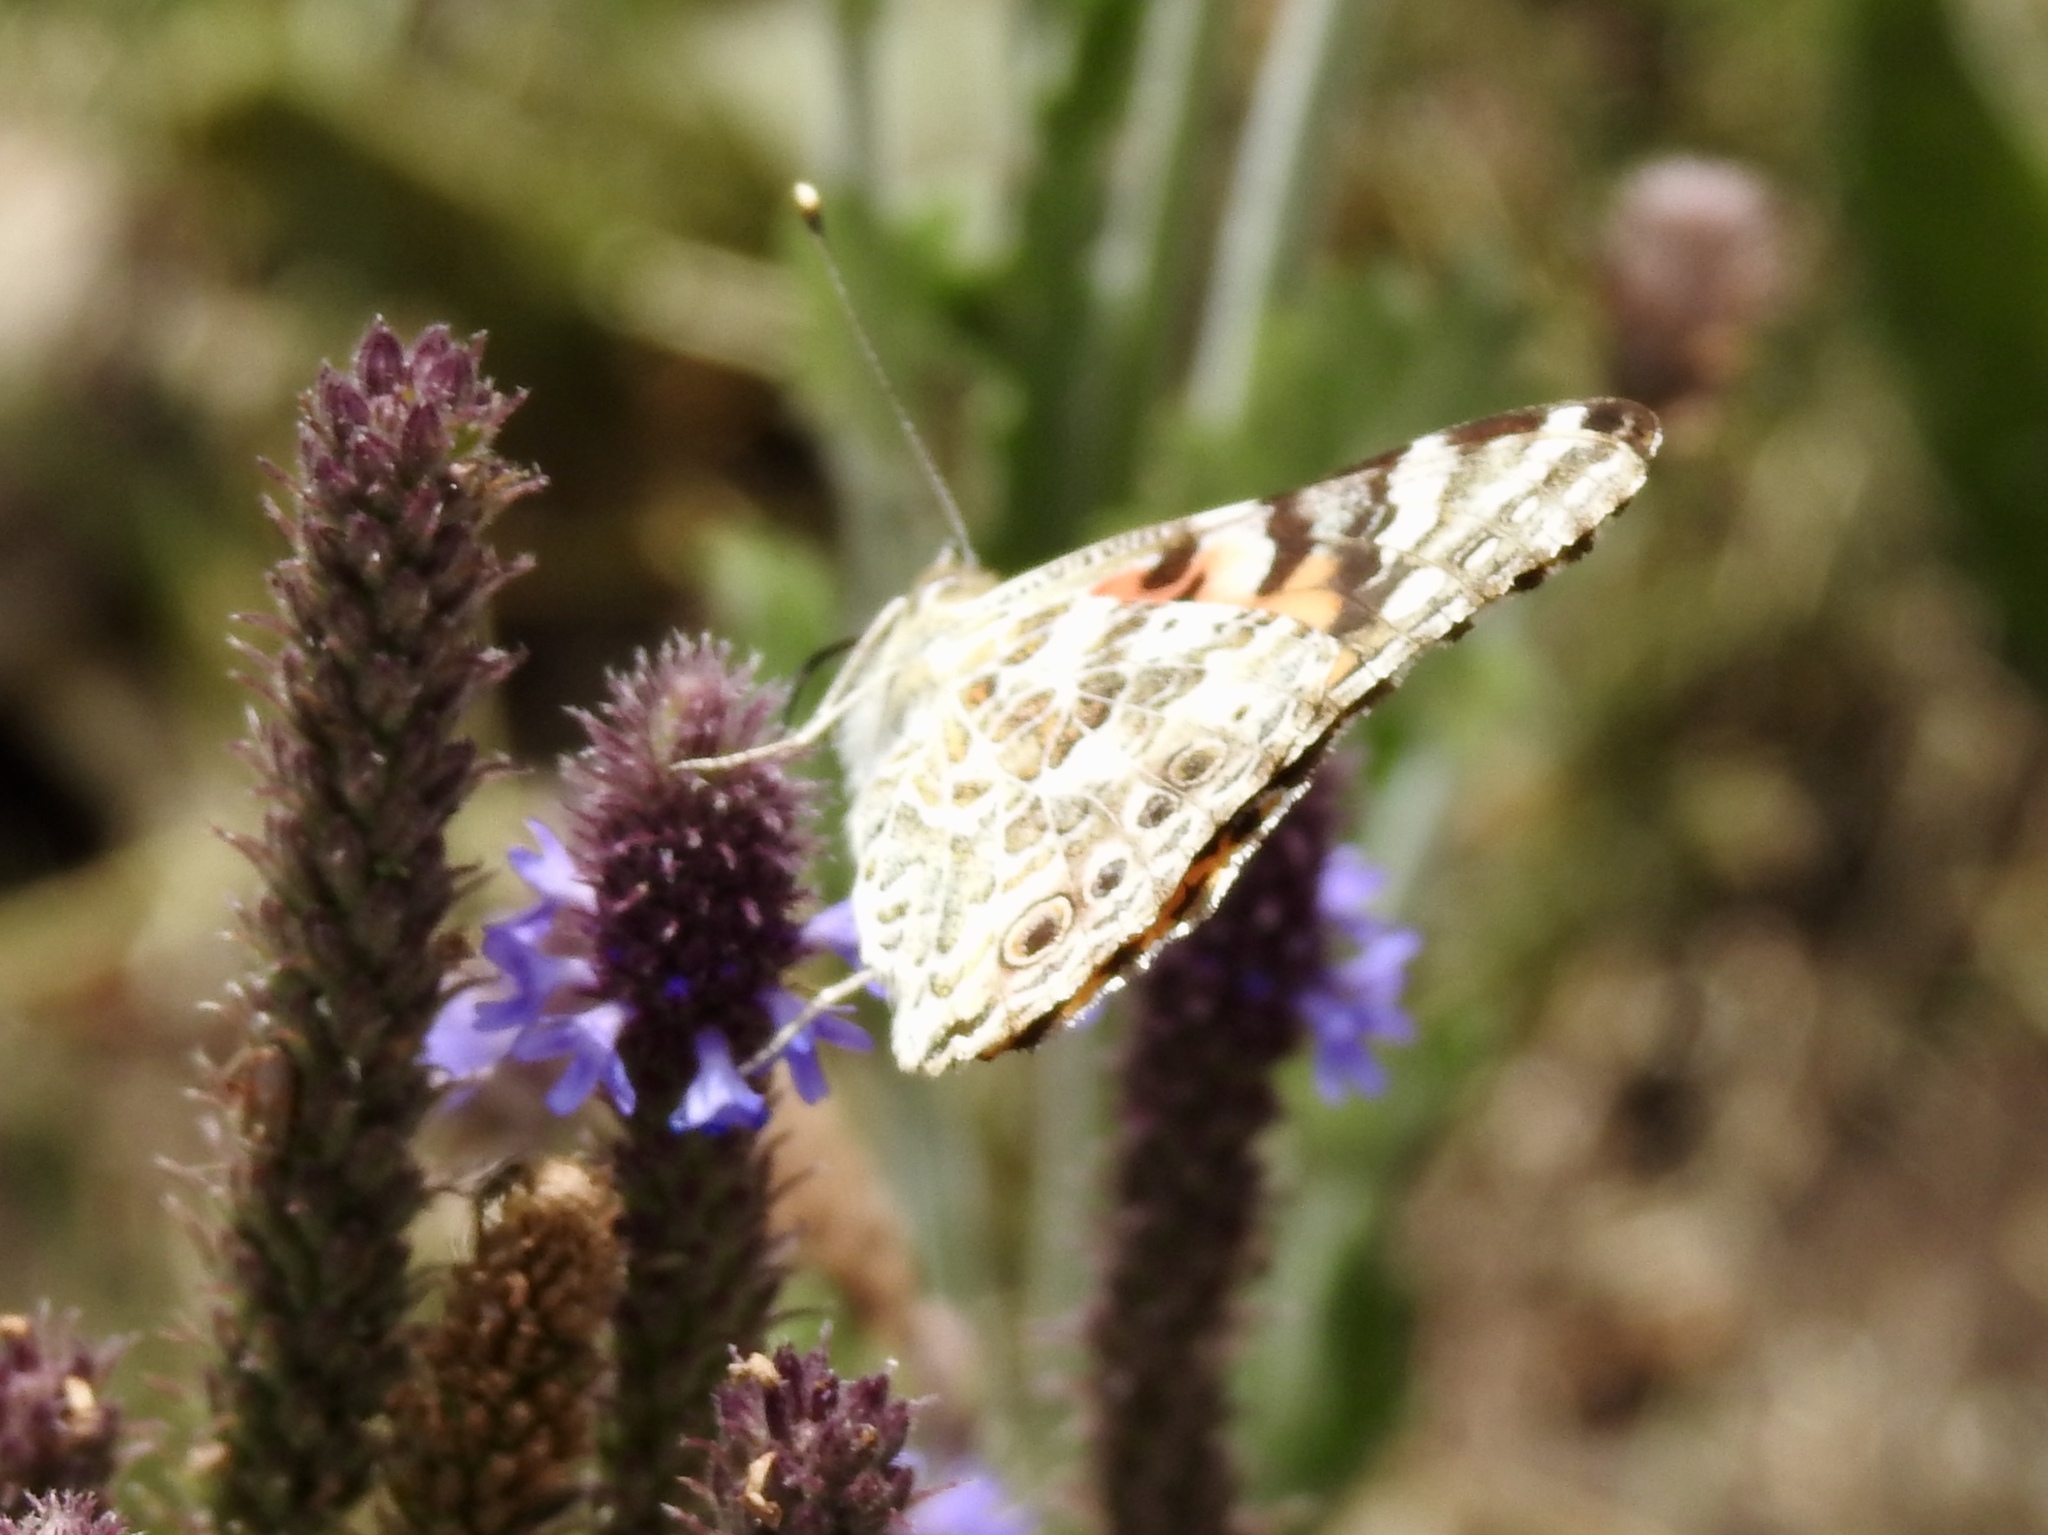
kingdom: Animalia
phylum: Arthropoda
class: Insecta
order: Lepidoptera
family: Nymphalidae
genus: Vanessa
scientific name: Vanessa cardui
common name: Painted lady
